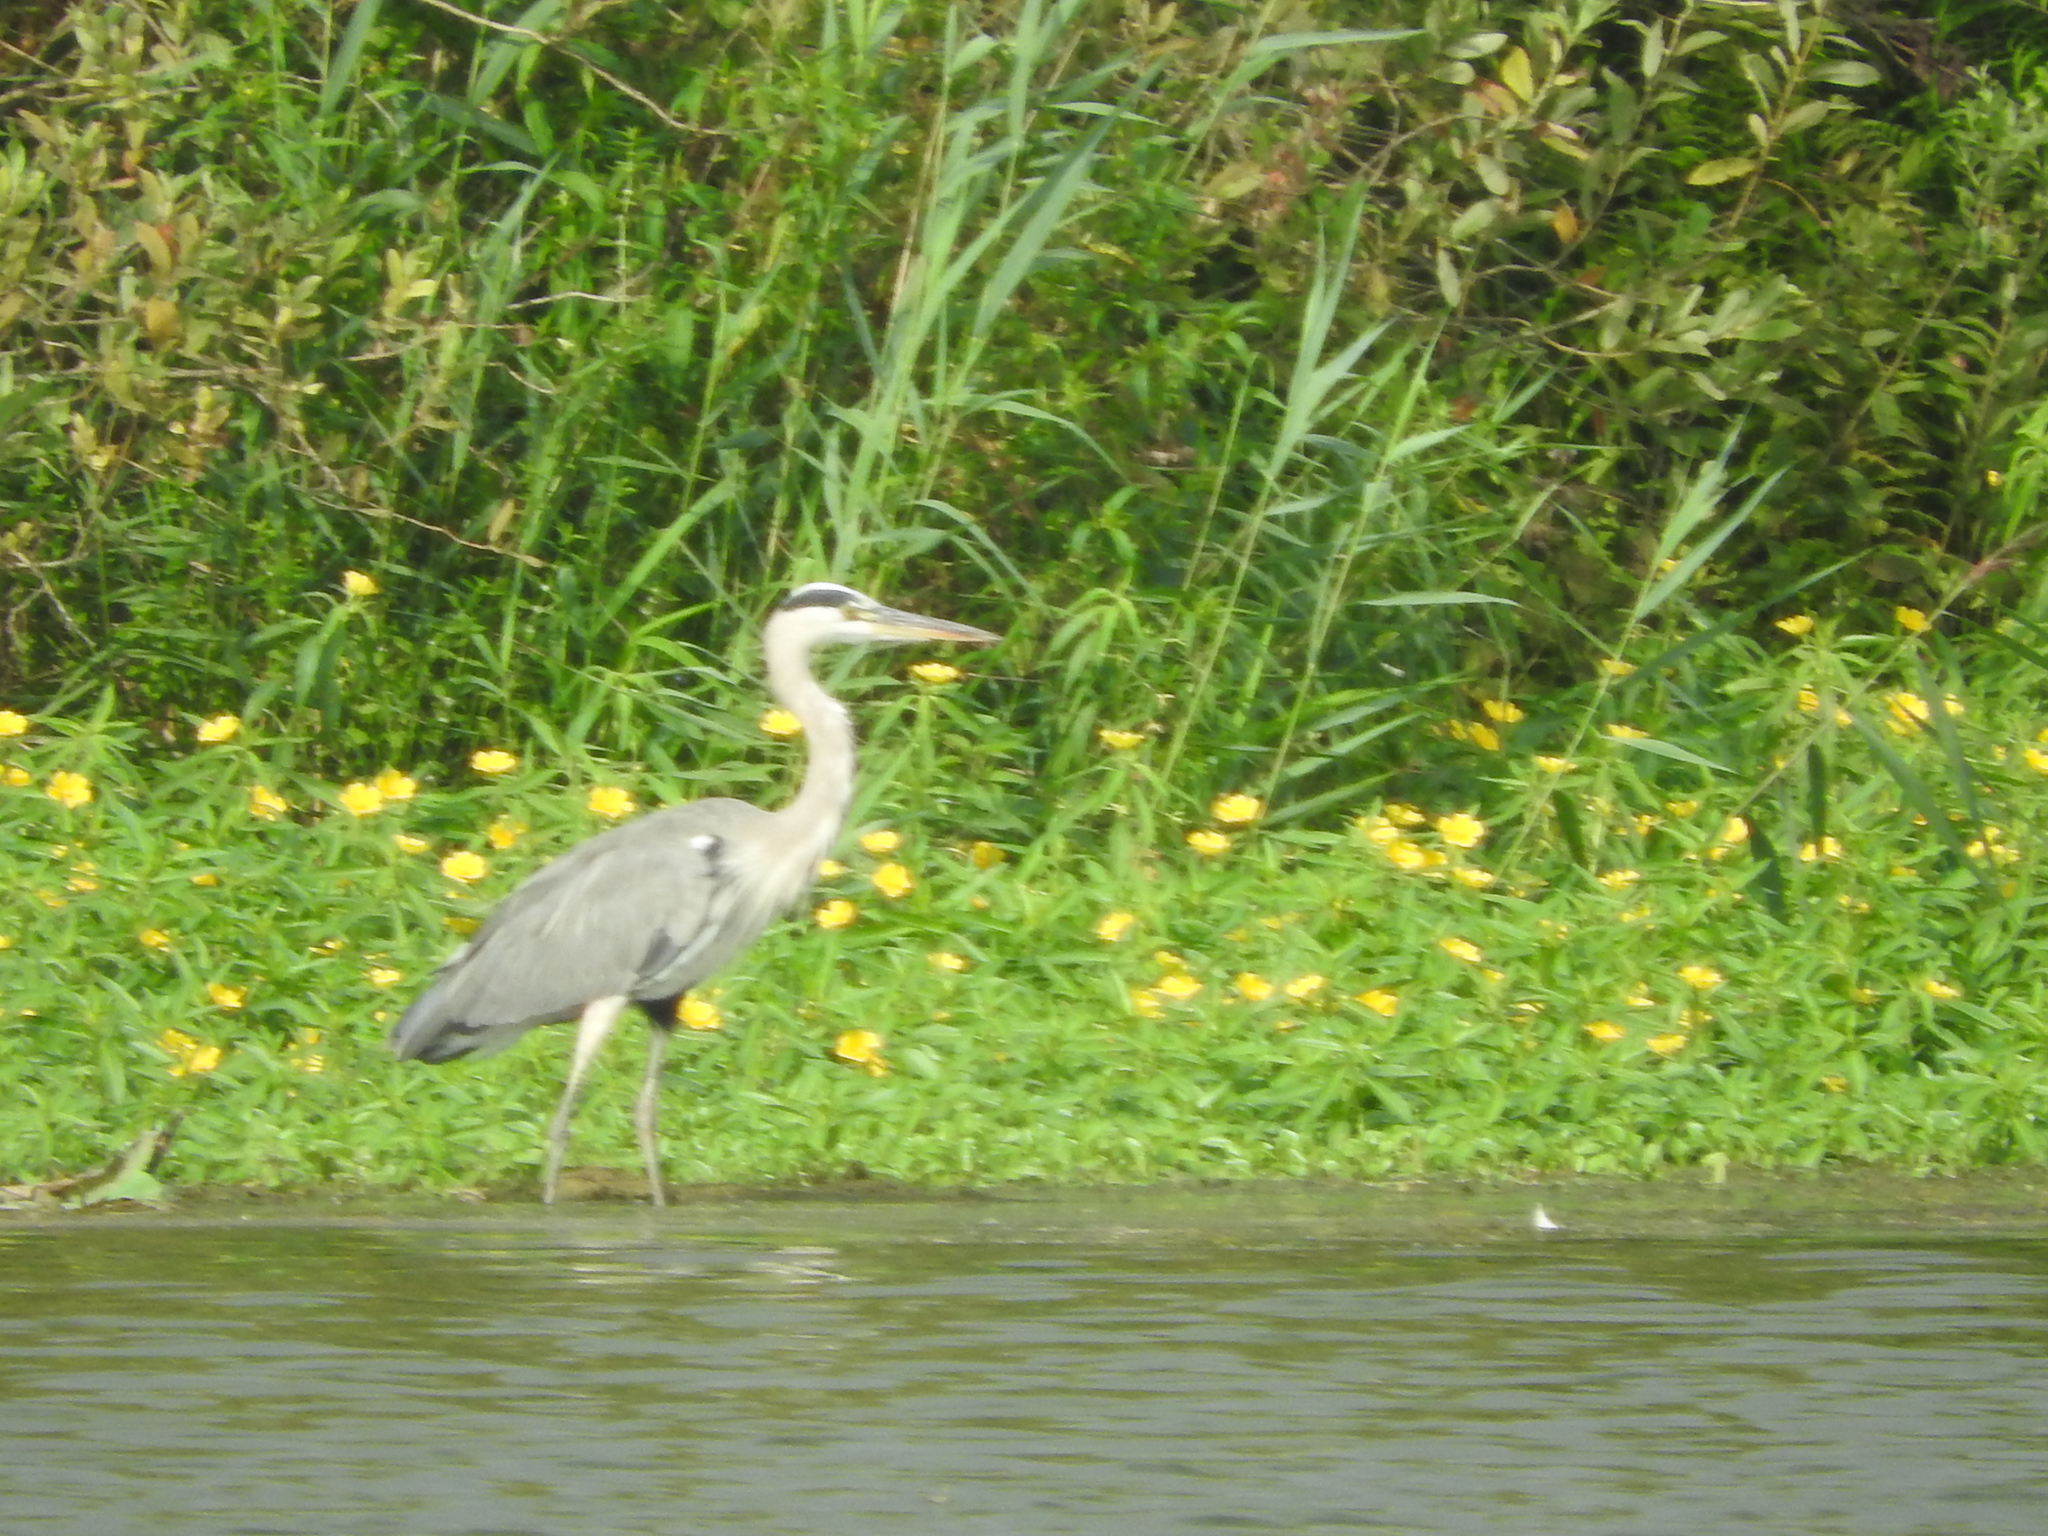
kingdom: Animalia
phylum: Chordata
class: Aves
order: Pelecaniformes
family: Ardeidae
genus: Ardea
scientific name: Ardea cinerea
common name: Grey heron
